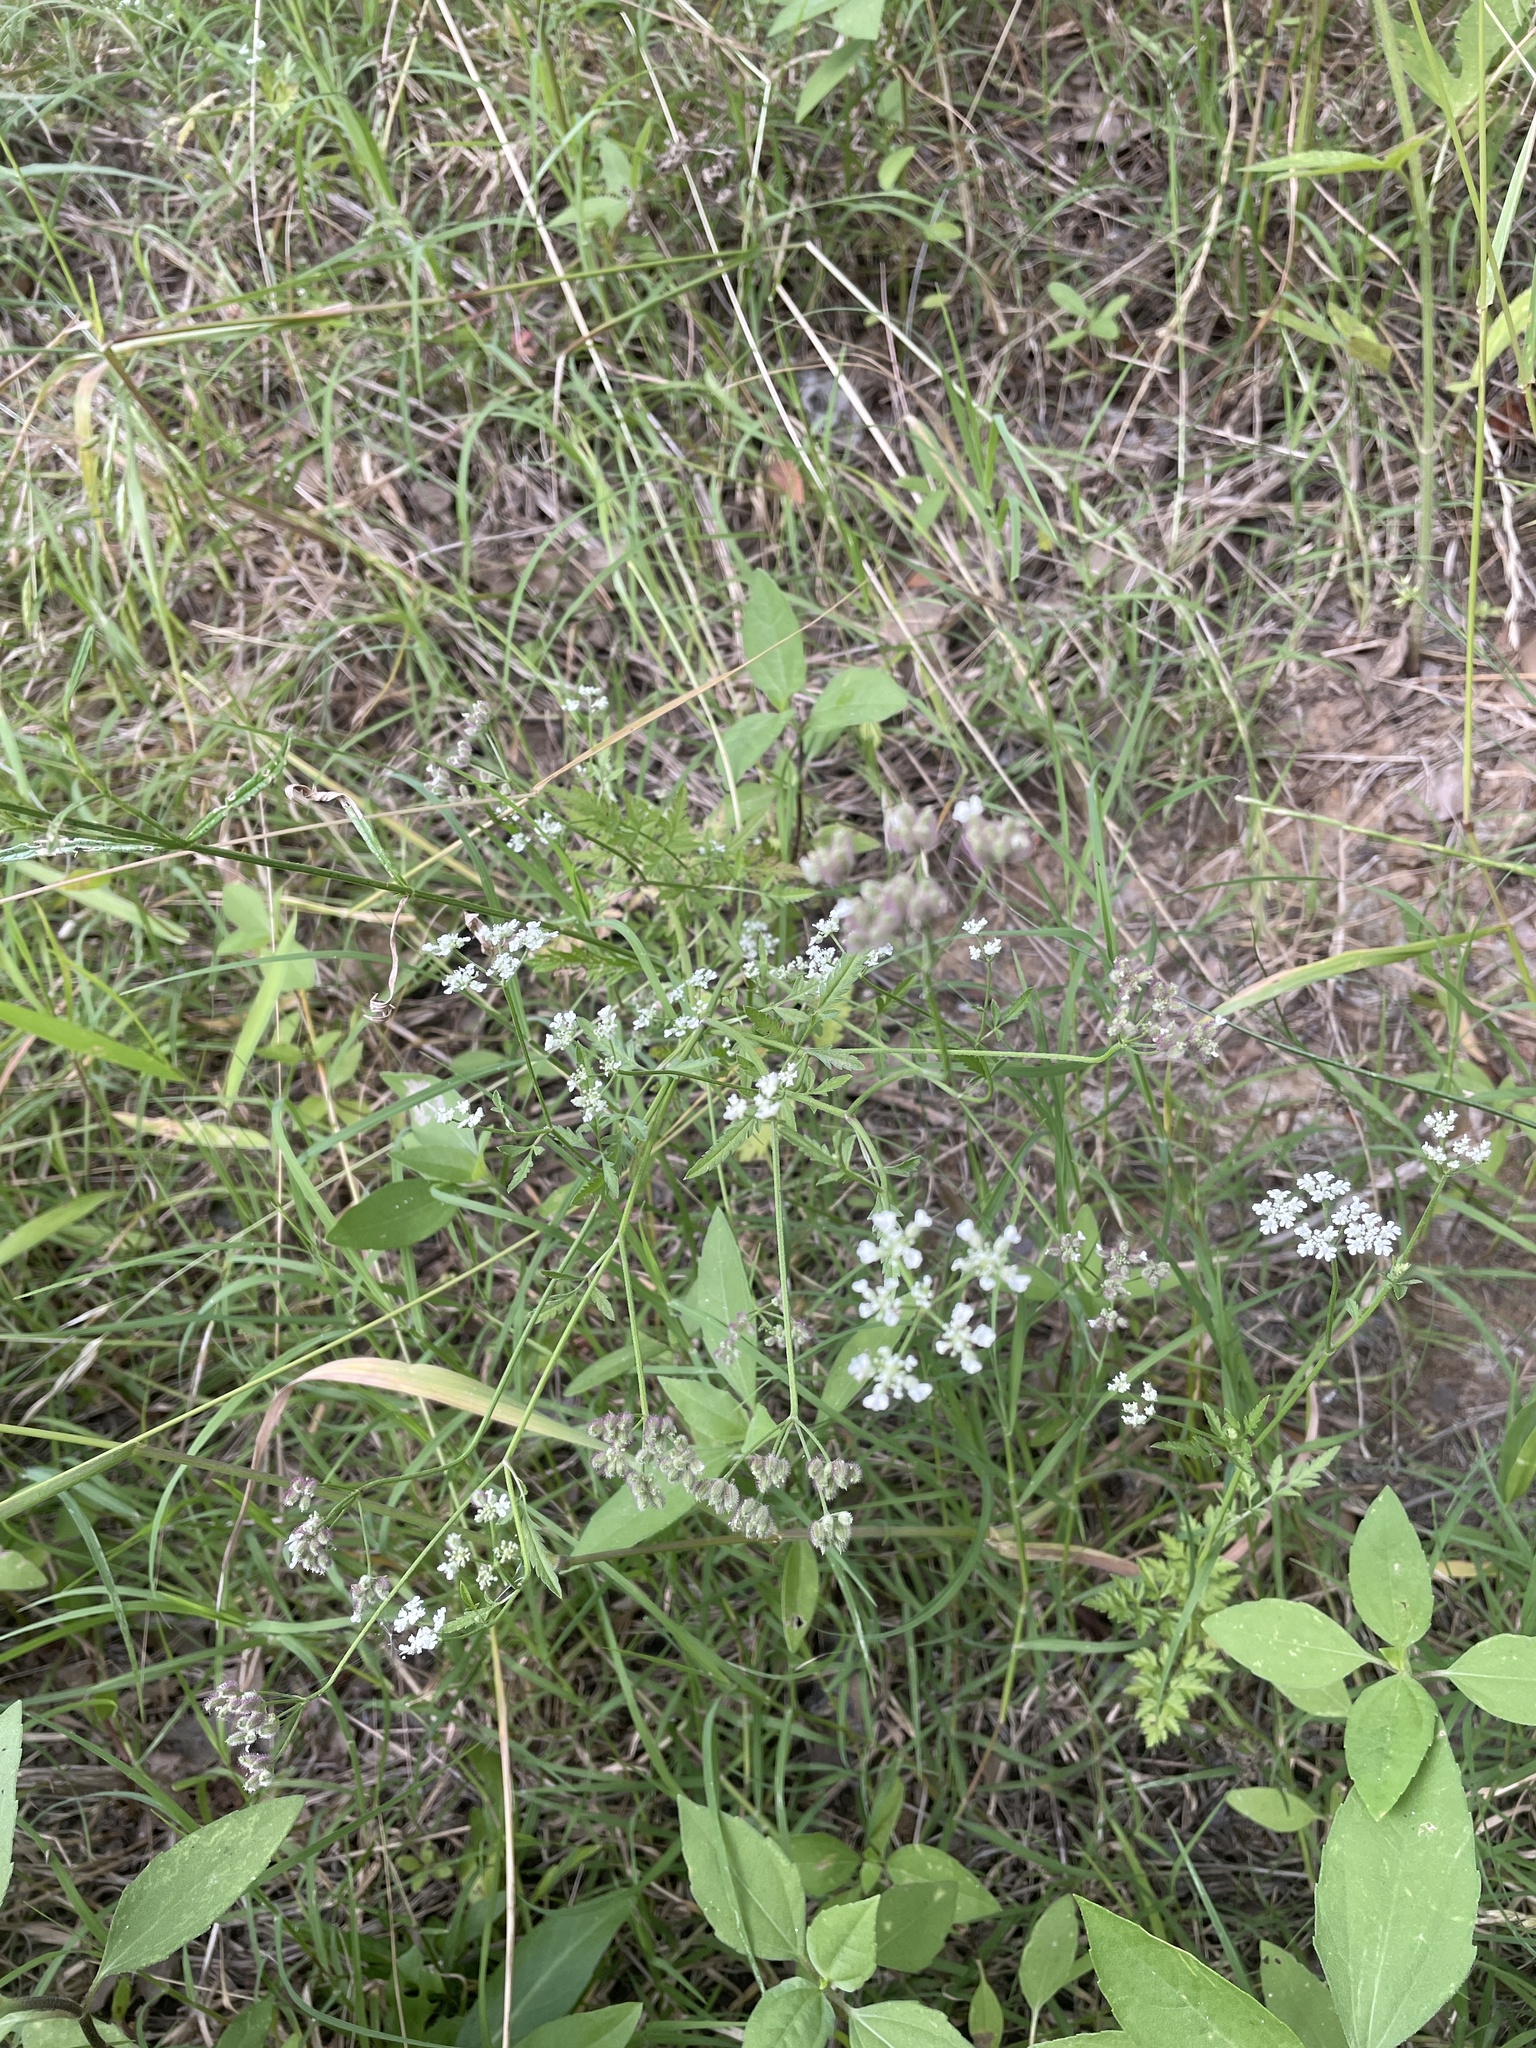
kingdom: Plantae
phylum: Tracheophyta
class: Magnoliopsida
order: Apiales
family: Apiaceae
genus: Torilis
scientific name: Torilis arvensis
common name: Spreading hedge-parsley
